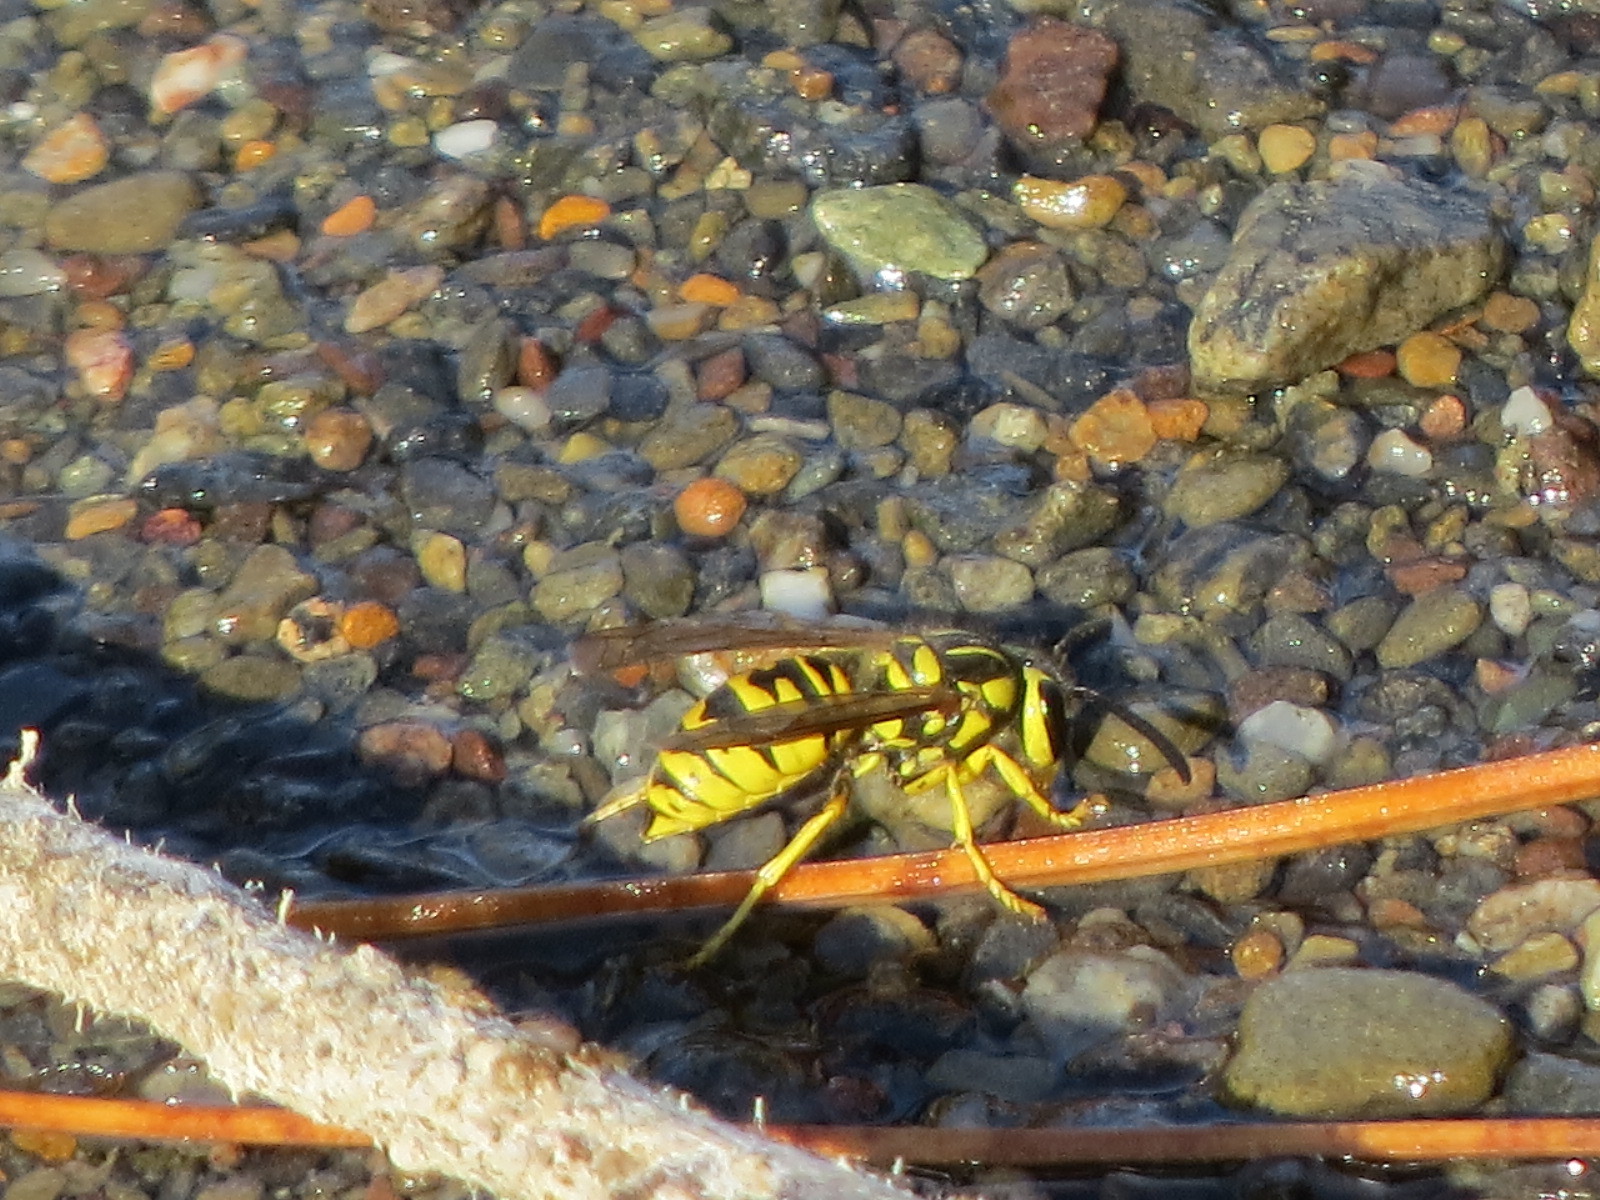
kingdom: Animalia
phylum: Arthropoda
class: Insecta
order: Hymenoptera
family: Vespidae
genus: Vespula
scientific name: Vespula sulphurea
